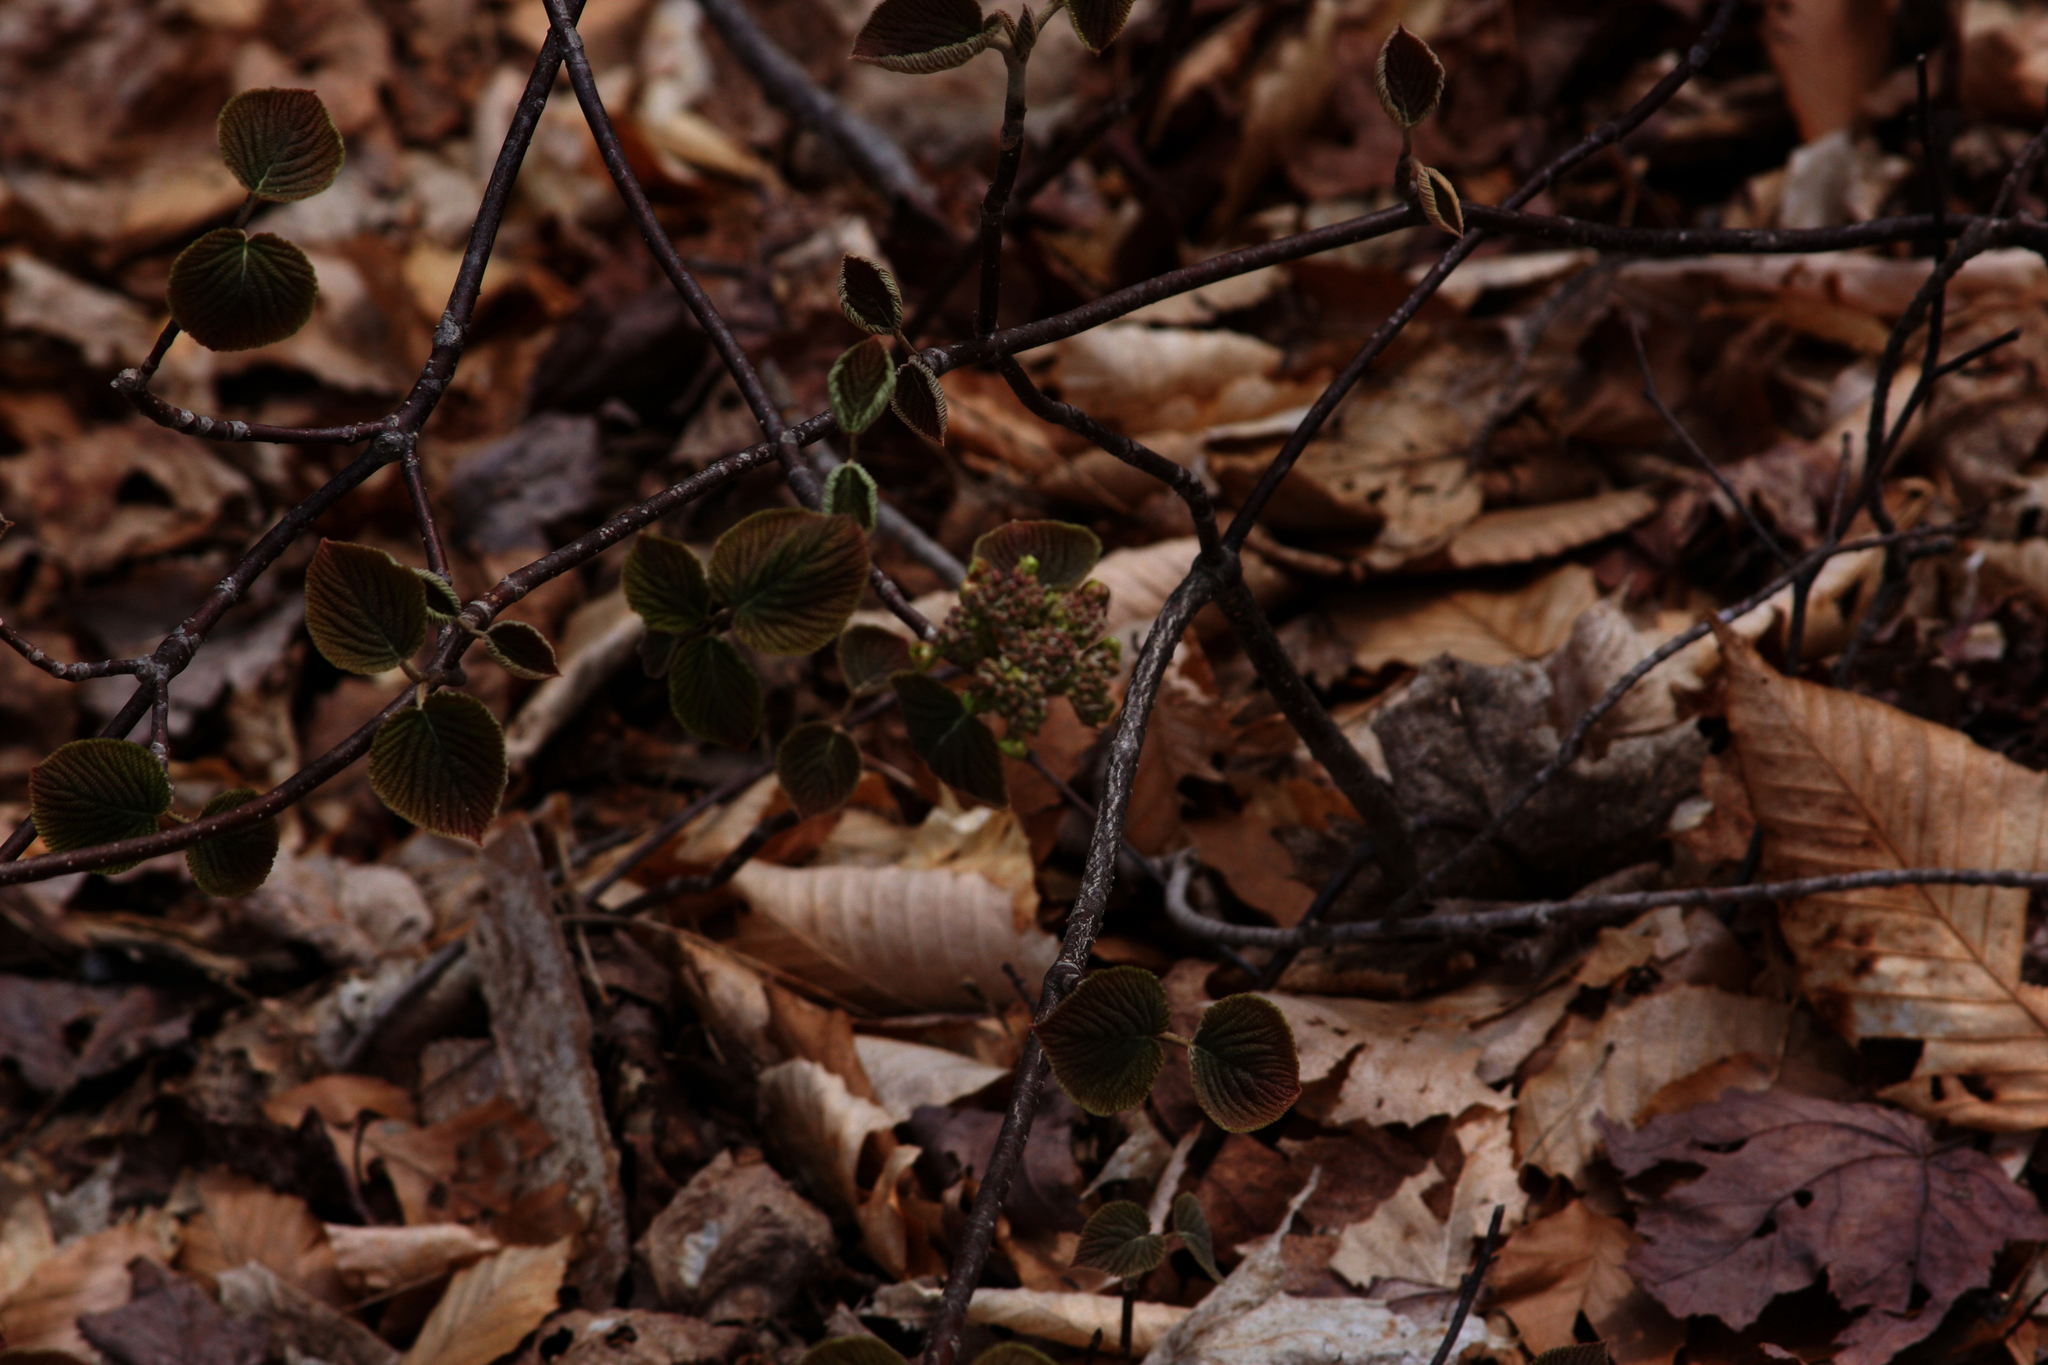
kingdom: Plantae
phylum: Tracheophyta
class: Magnoliopsida
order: Dipsacales
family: Viburnaceae
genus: Viburnum
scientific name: Viburnum lantanoides
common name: Hobblebush
